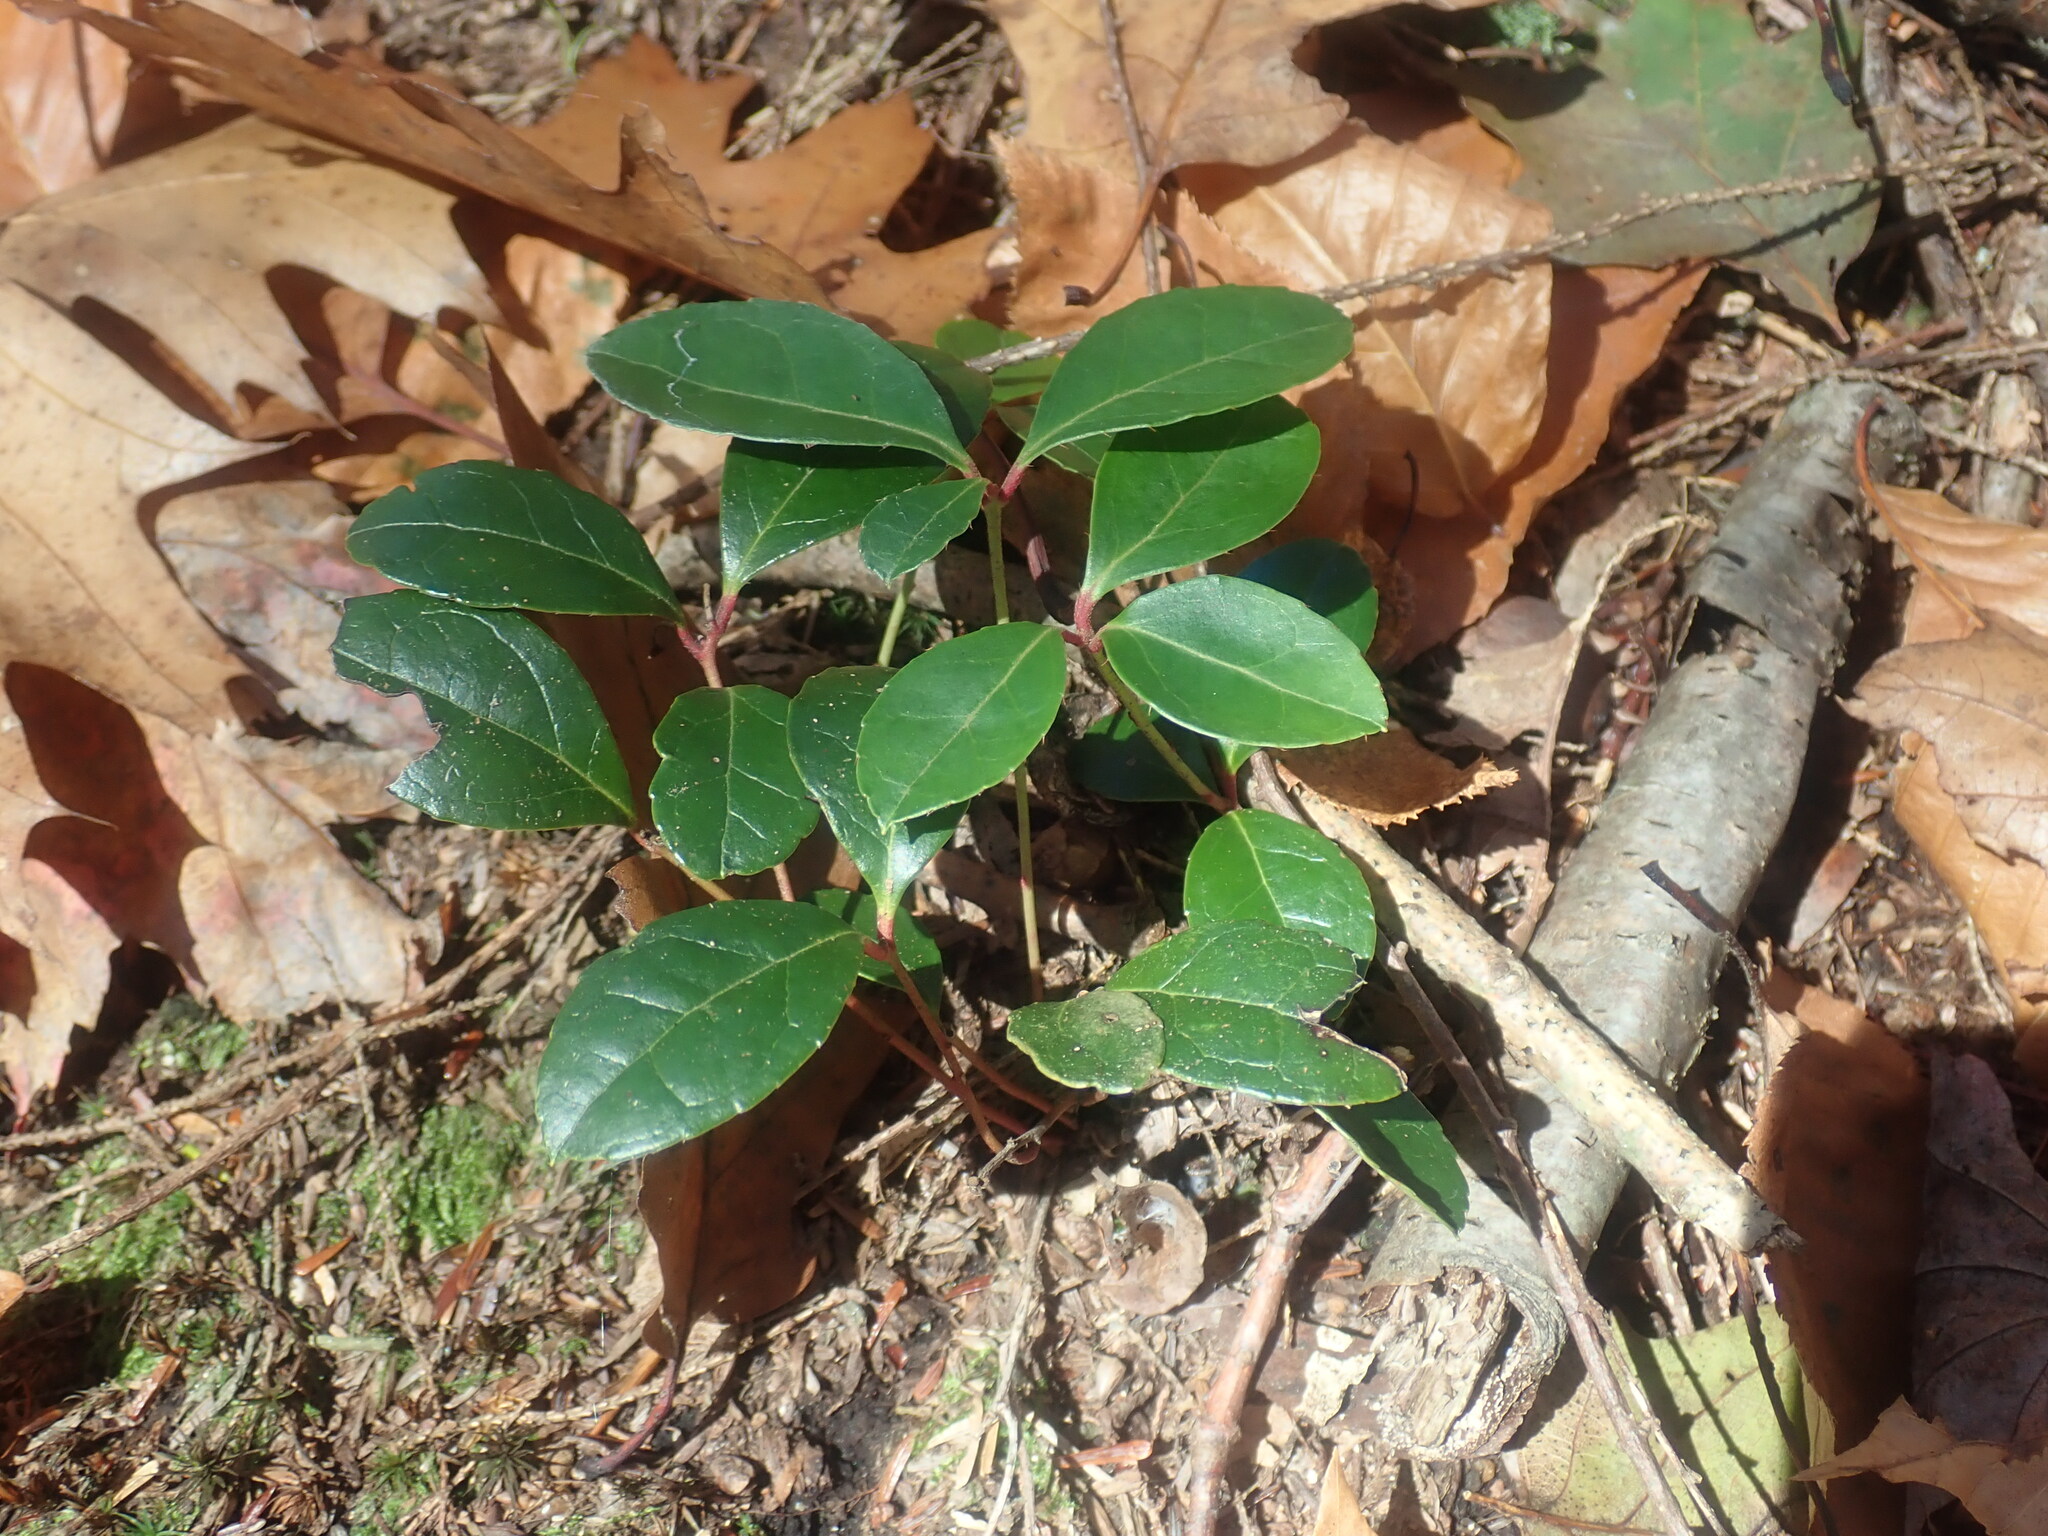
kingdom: Plantae
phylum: Tracheophyta
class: Magnoliopsida
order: Ericales
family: Ericaceae
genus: Gaultheria
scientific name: Gaultheria procumbens
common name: Checkerberry
